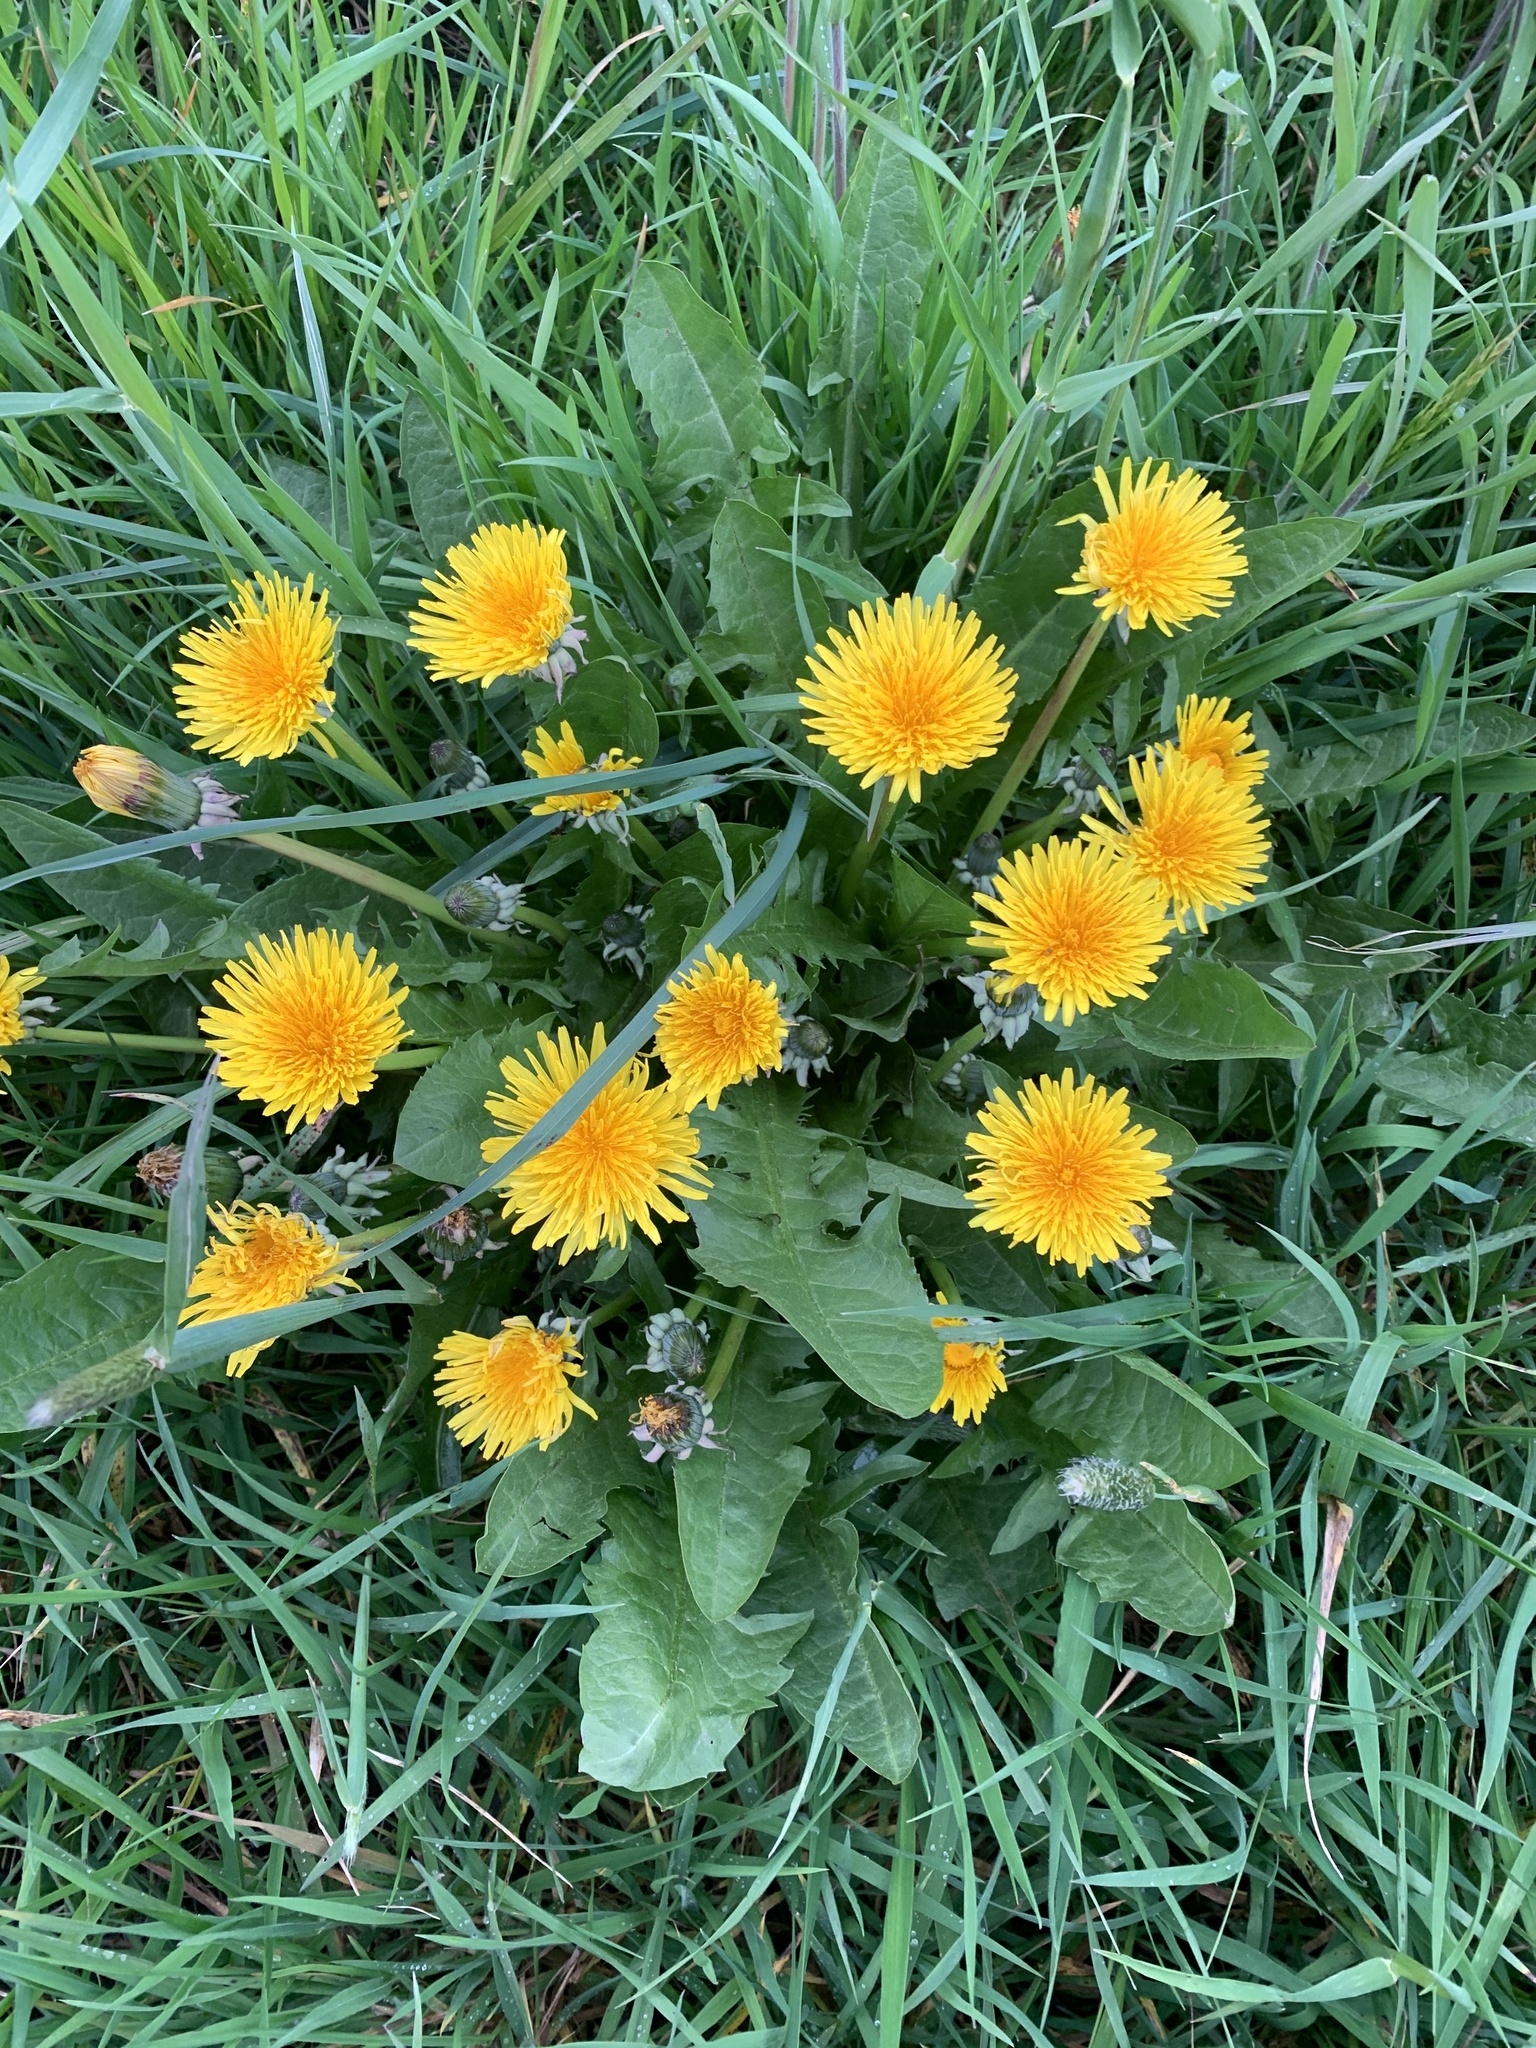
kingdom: Plantae
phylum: Tracheophyta
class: Magnoliopsida
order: Asterales
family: Asteraceae
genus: Taraxacum
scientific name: Taraxacum officinale
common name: Common dandelion
